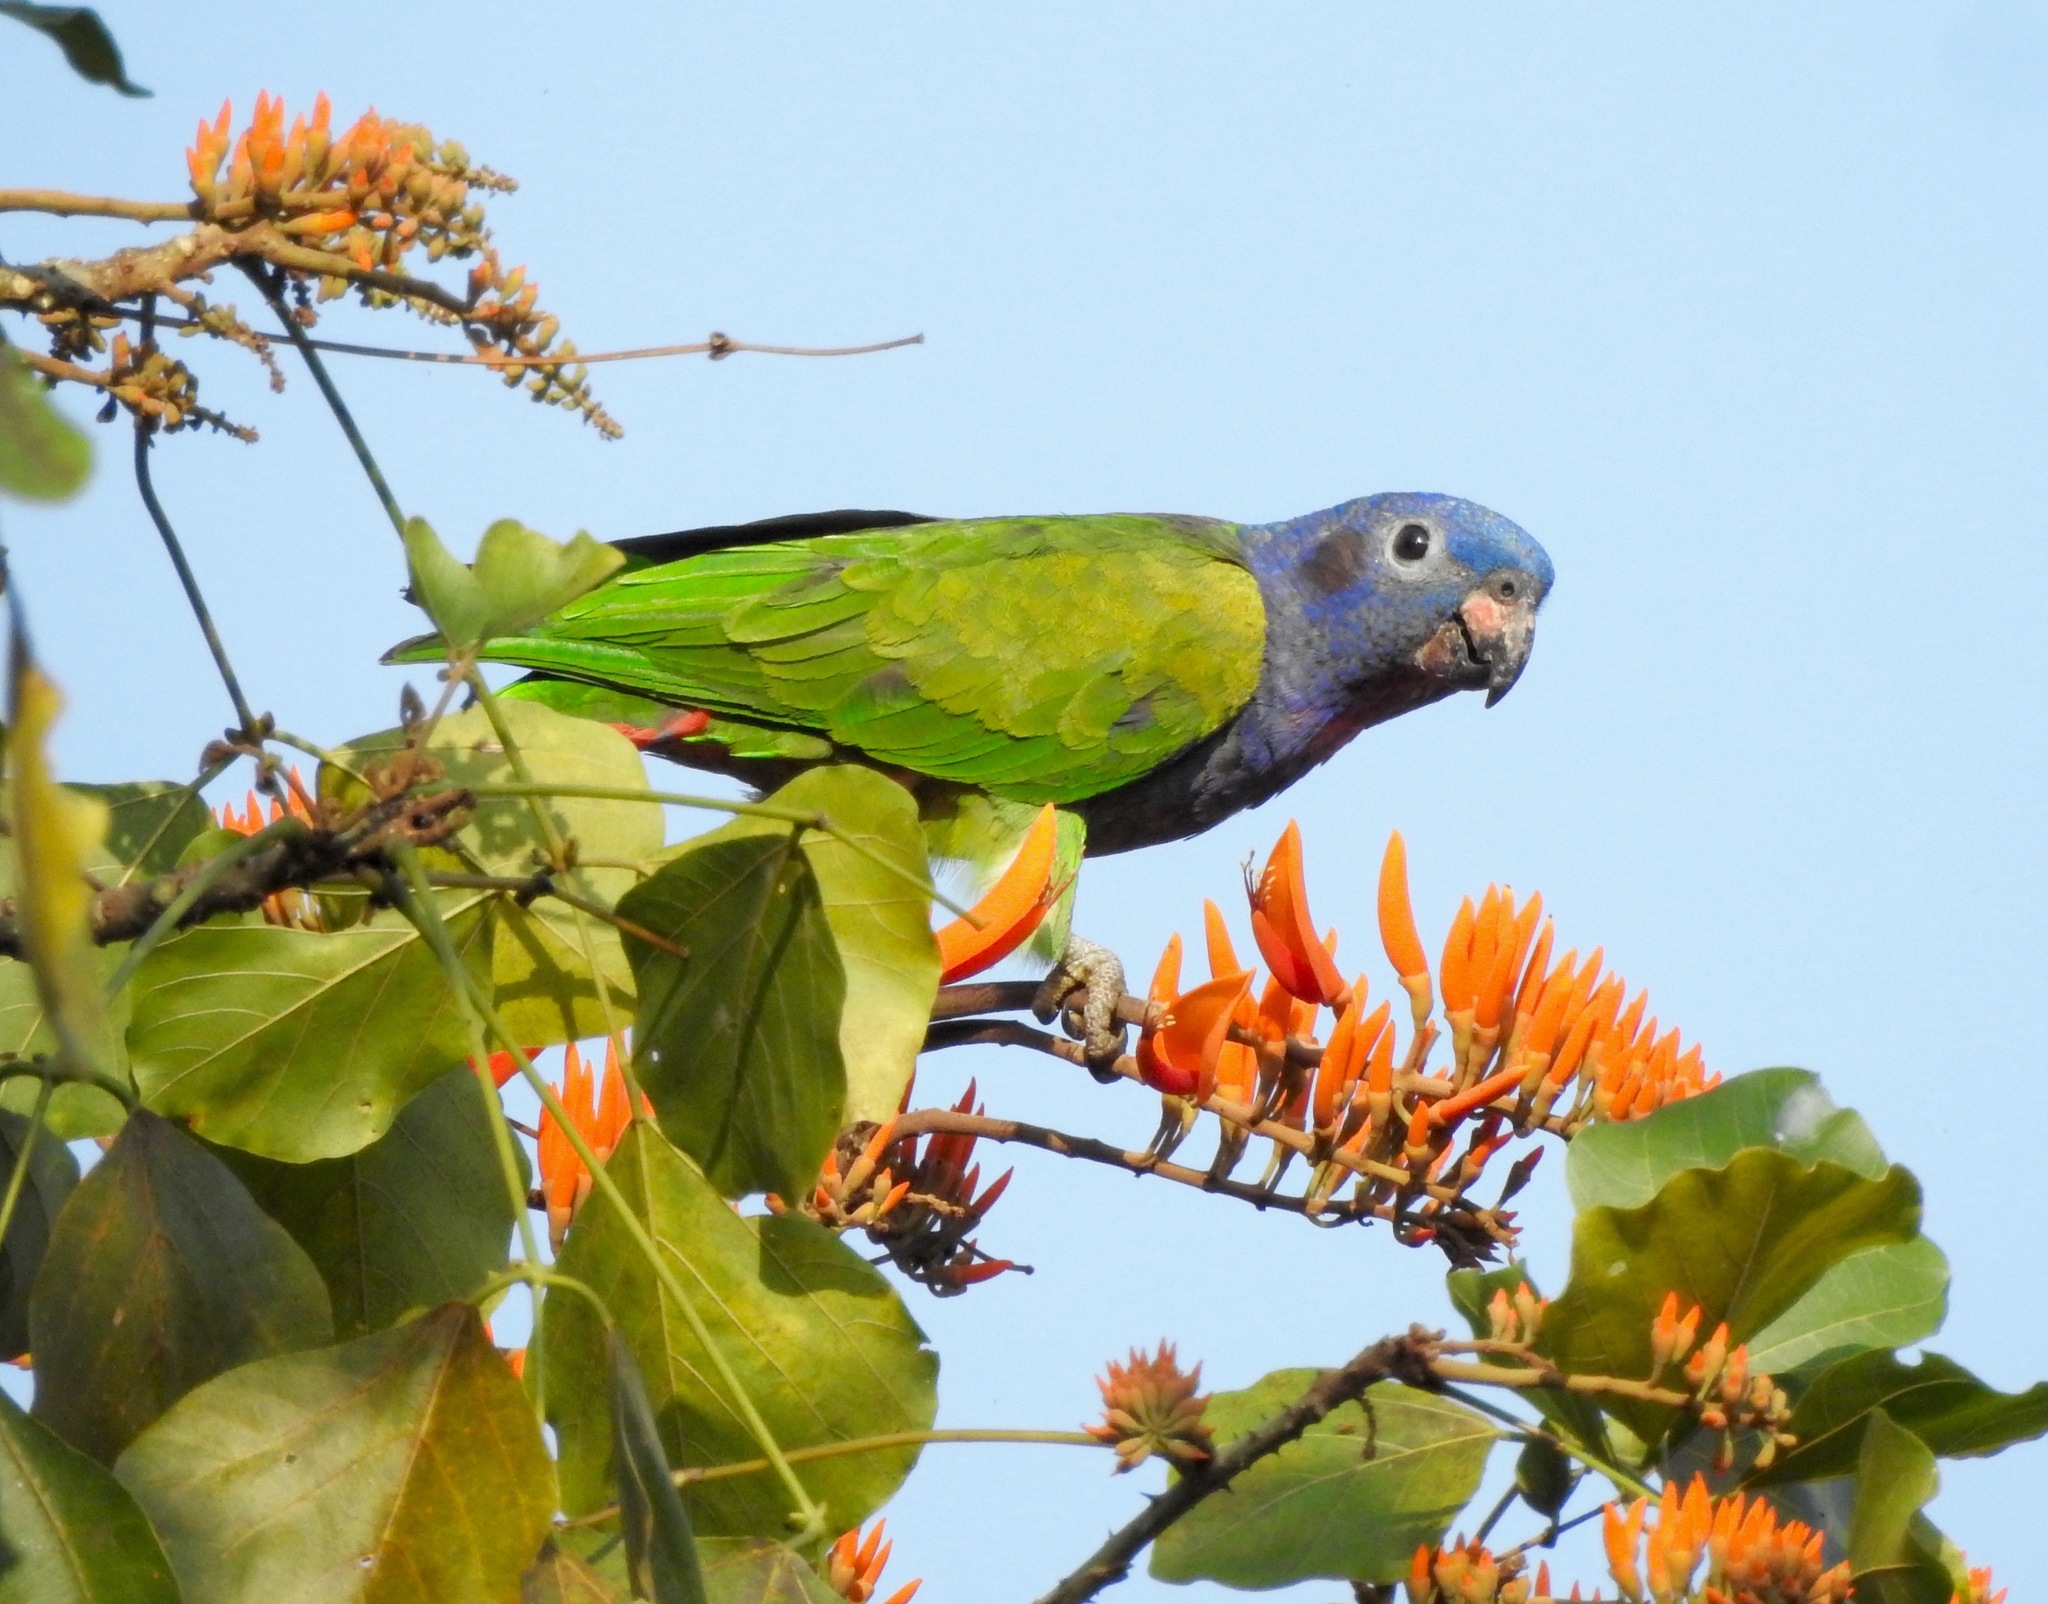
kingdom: Animalia
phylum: Chordata
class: Aves
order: Psittaciformes
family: Psittacidae
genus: Pionus
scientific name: Pionus menstruus
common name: Blue-headed parrot
